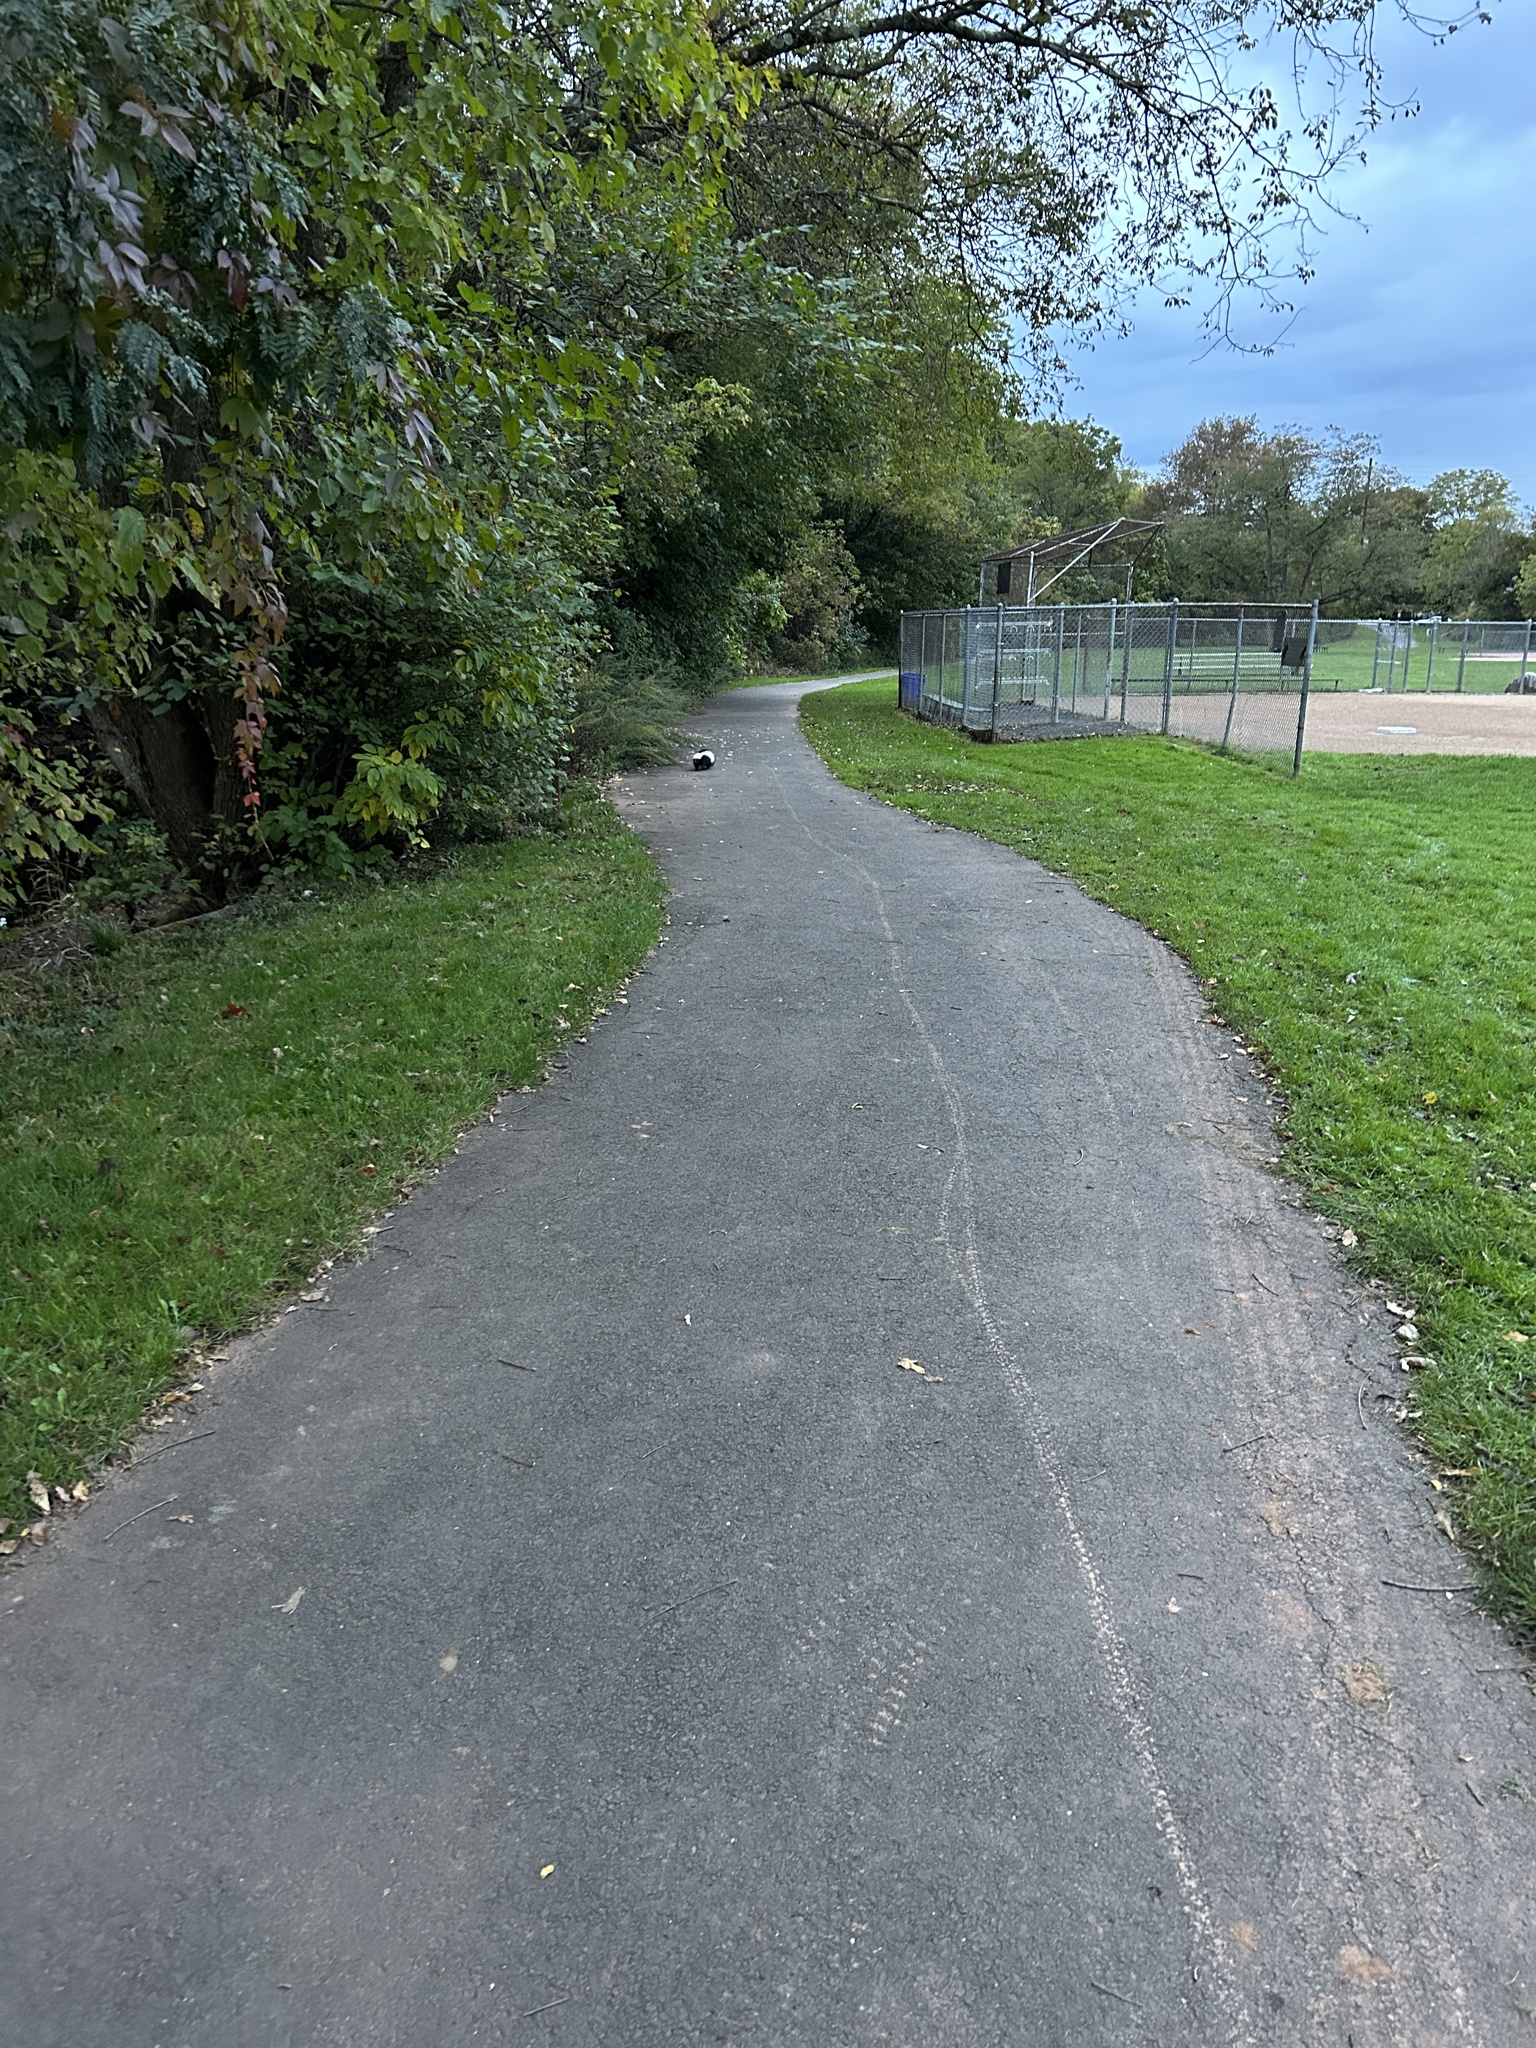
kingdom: Animalia
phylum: Chordata
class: Mammalia
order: Carnivora
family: Mephitidae
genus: Mephitis
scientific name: Mephitis mephitis
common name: Striped skunk
